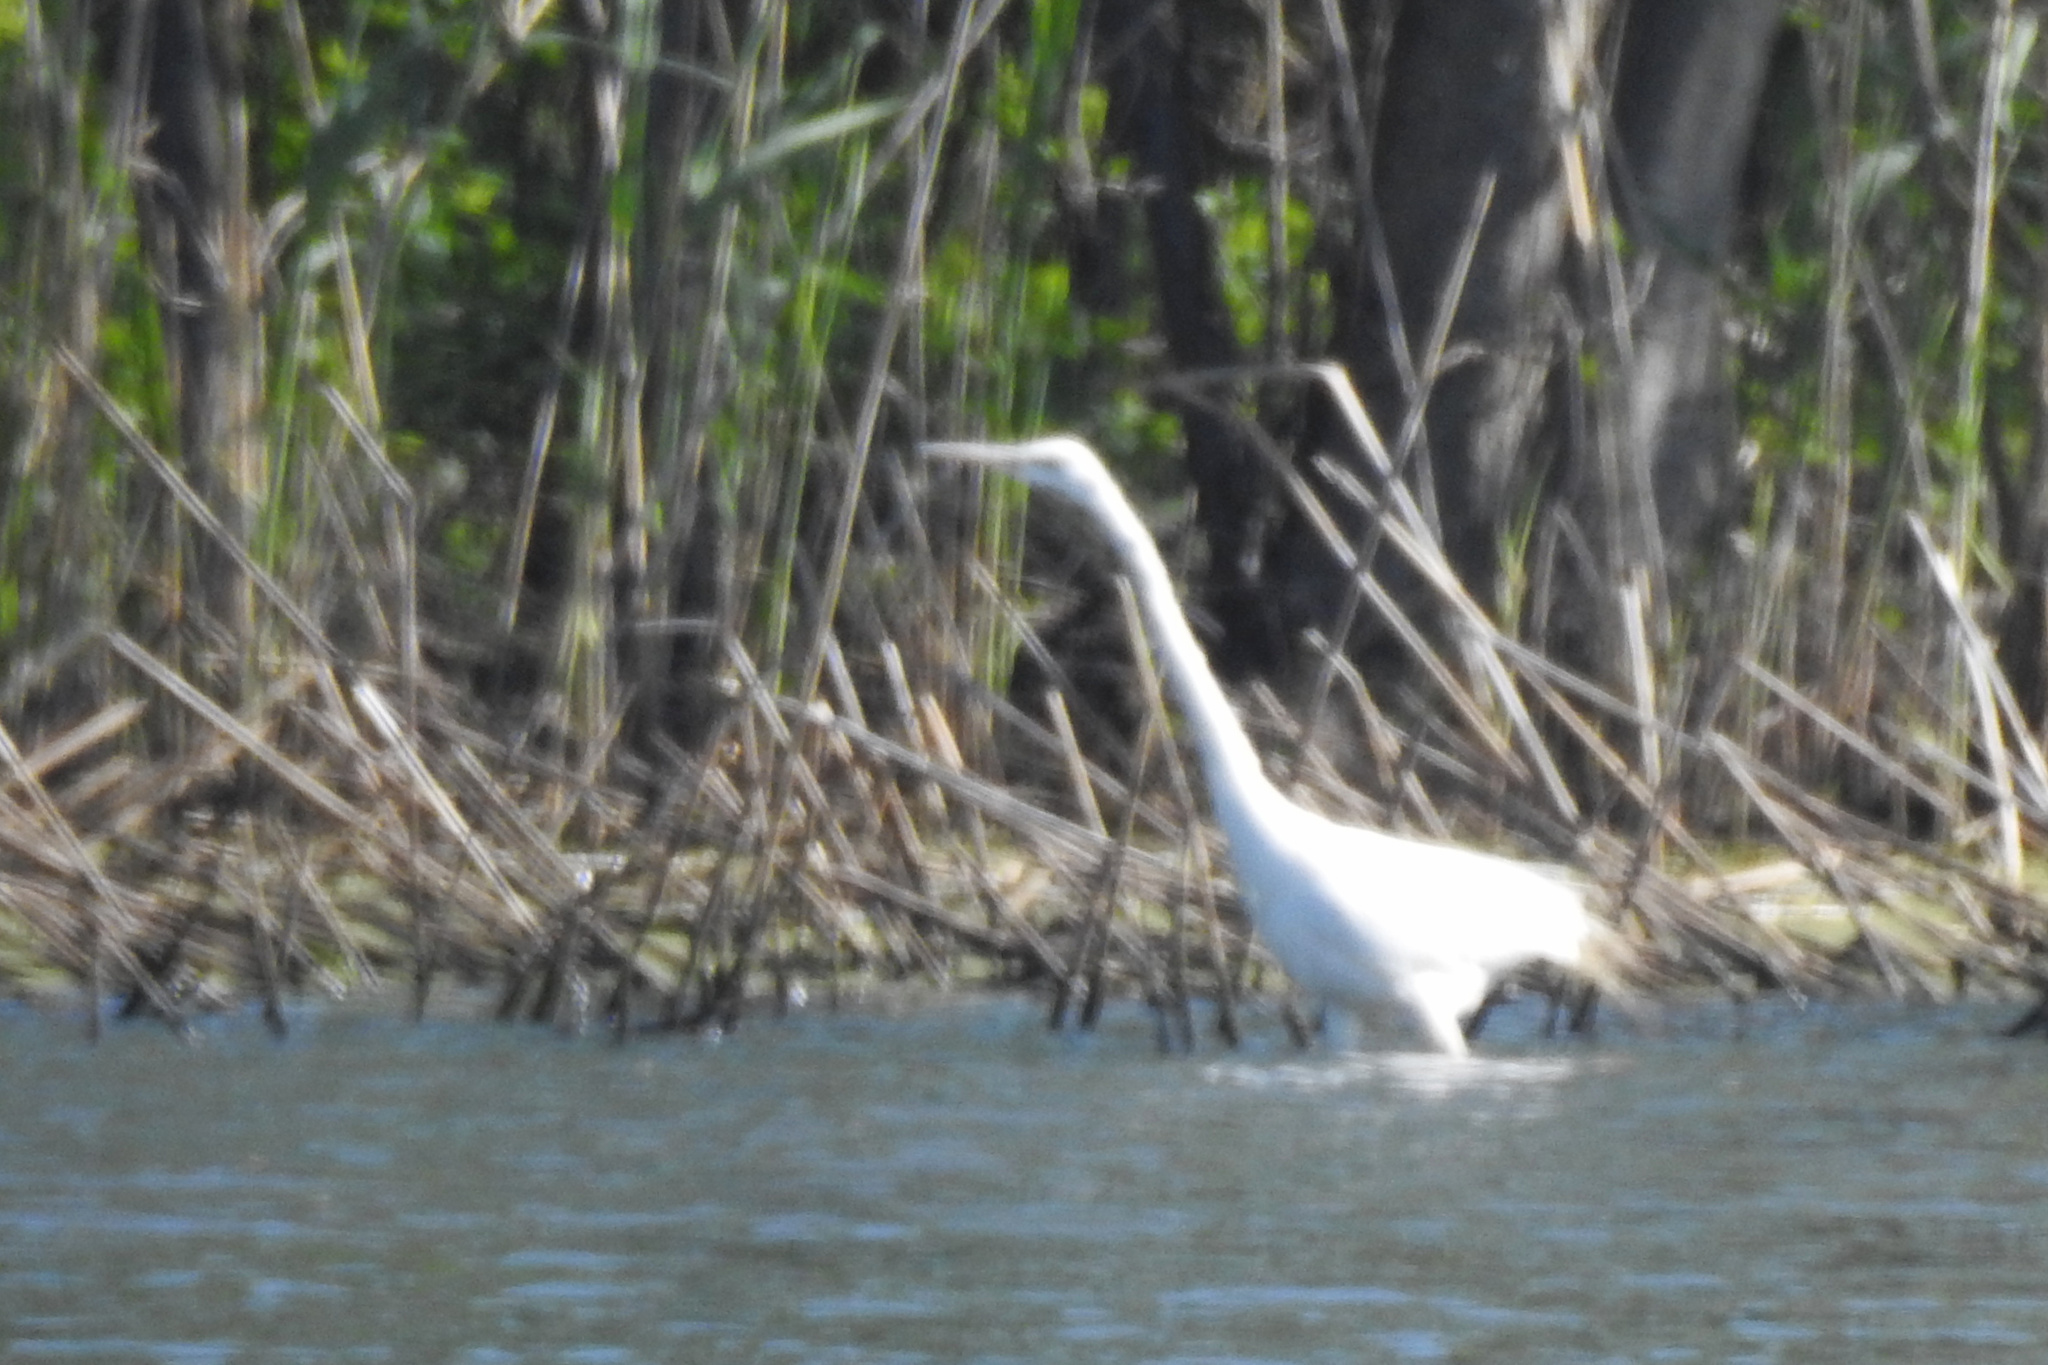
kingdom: Animalia
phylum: Chordata
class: Aves
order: Pelecaniformes
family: Ardeidae
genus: Ardea
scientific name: Ardea alba
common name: Great egret
